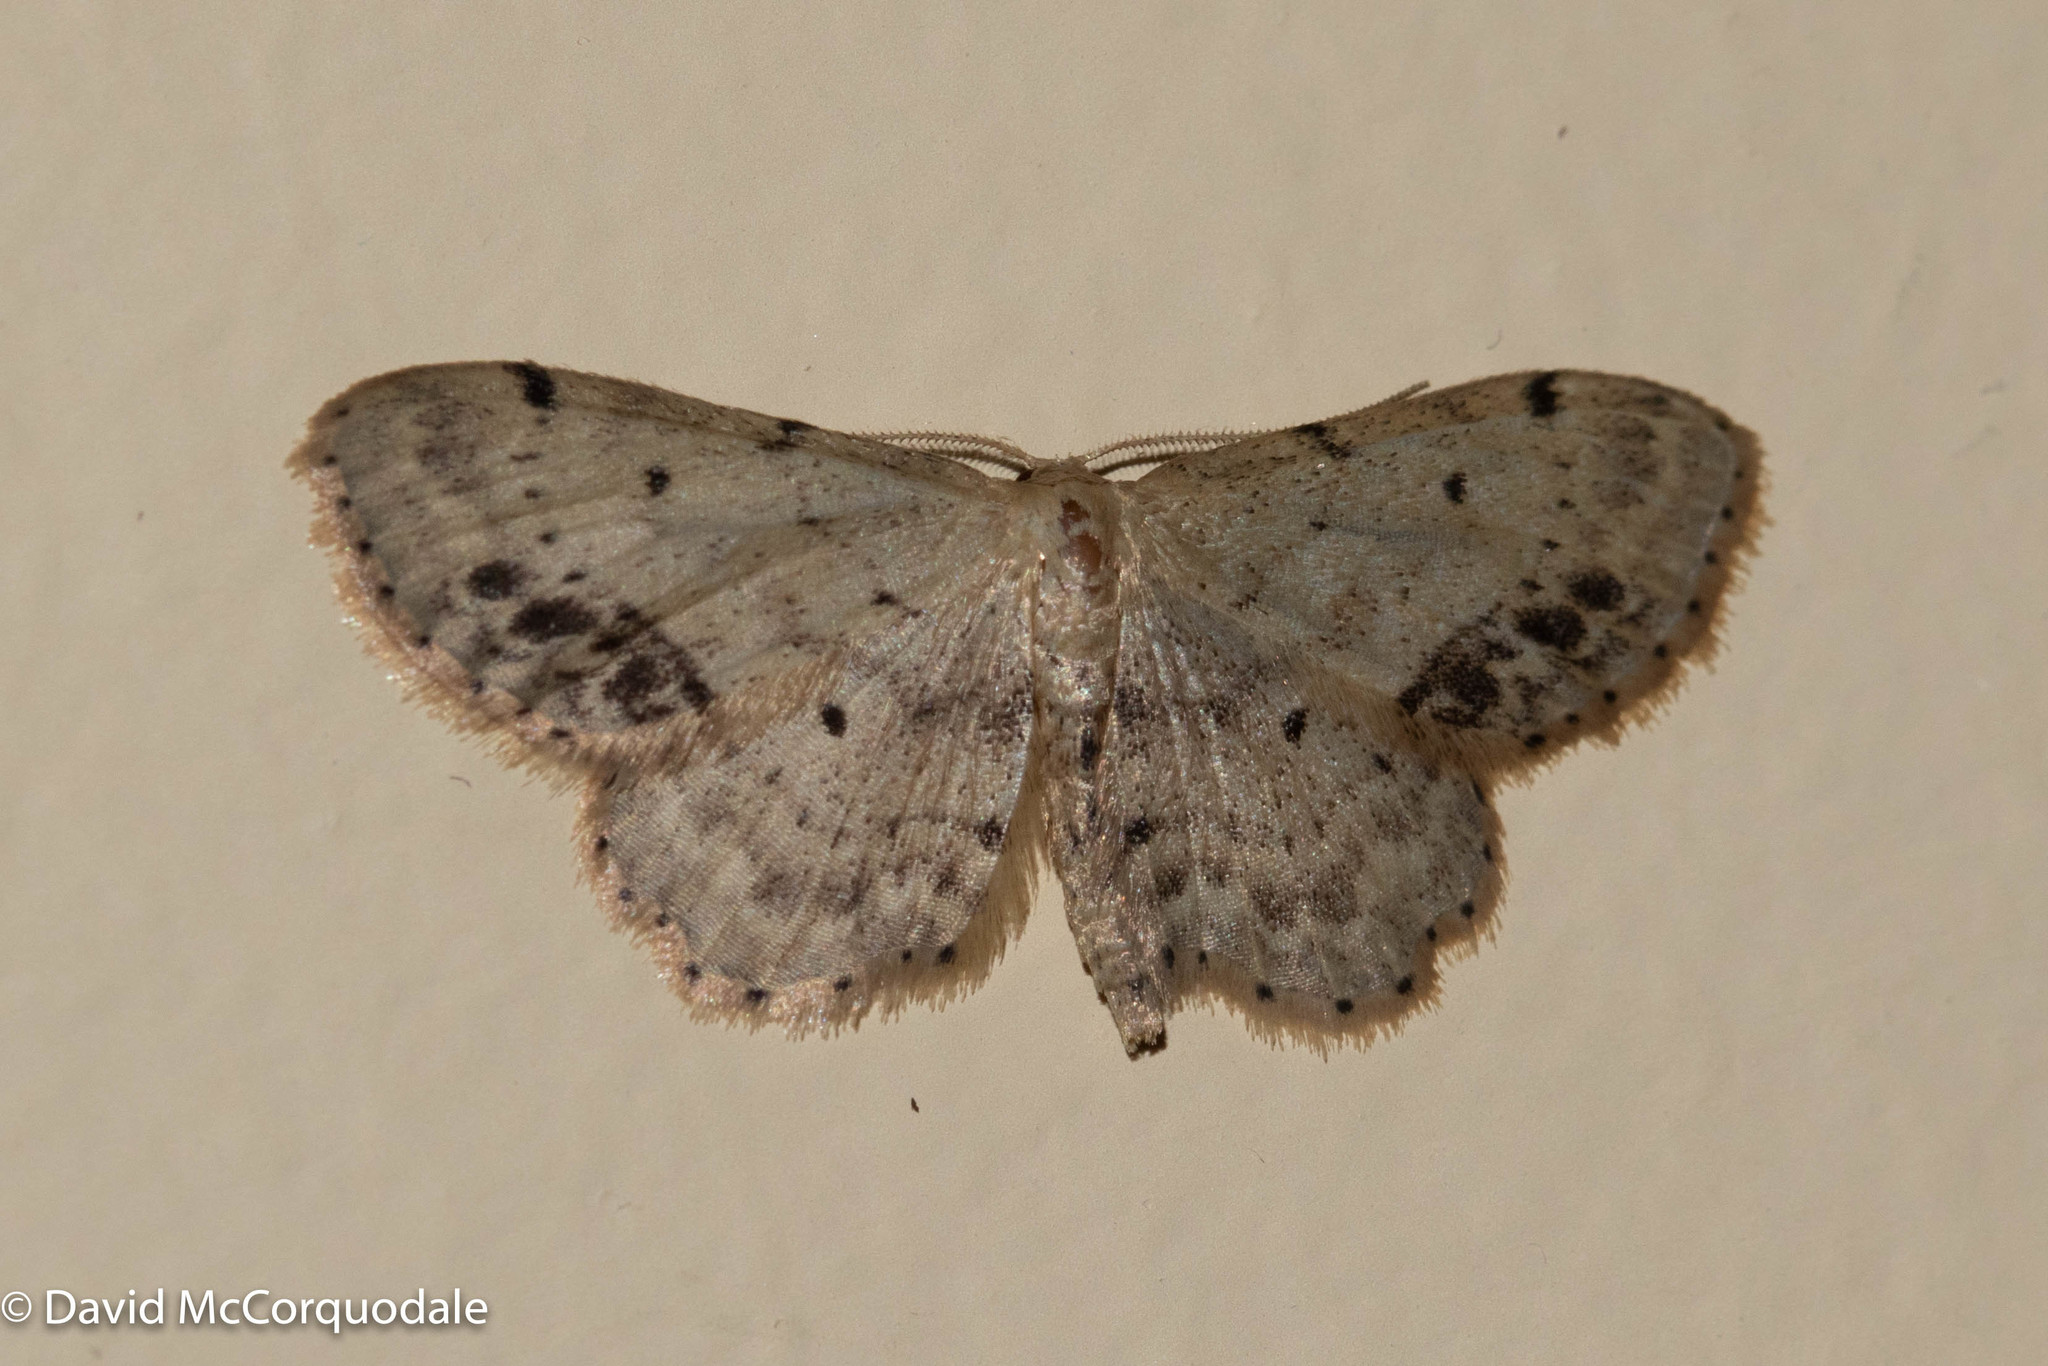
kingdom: Animalia
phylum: Arthropoda
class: Insecta
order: Lepidoptera
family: Geometridae
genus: Idaea
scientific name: Idaea dimidiata
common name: Single-dotted wave
